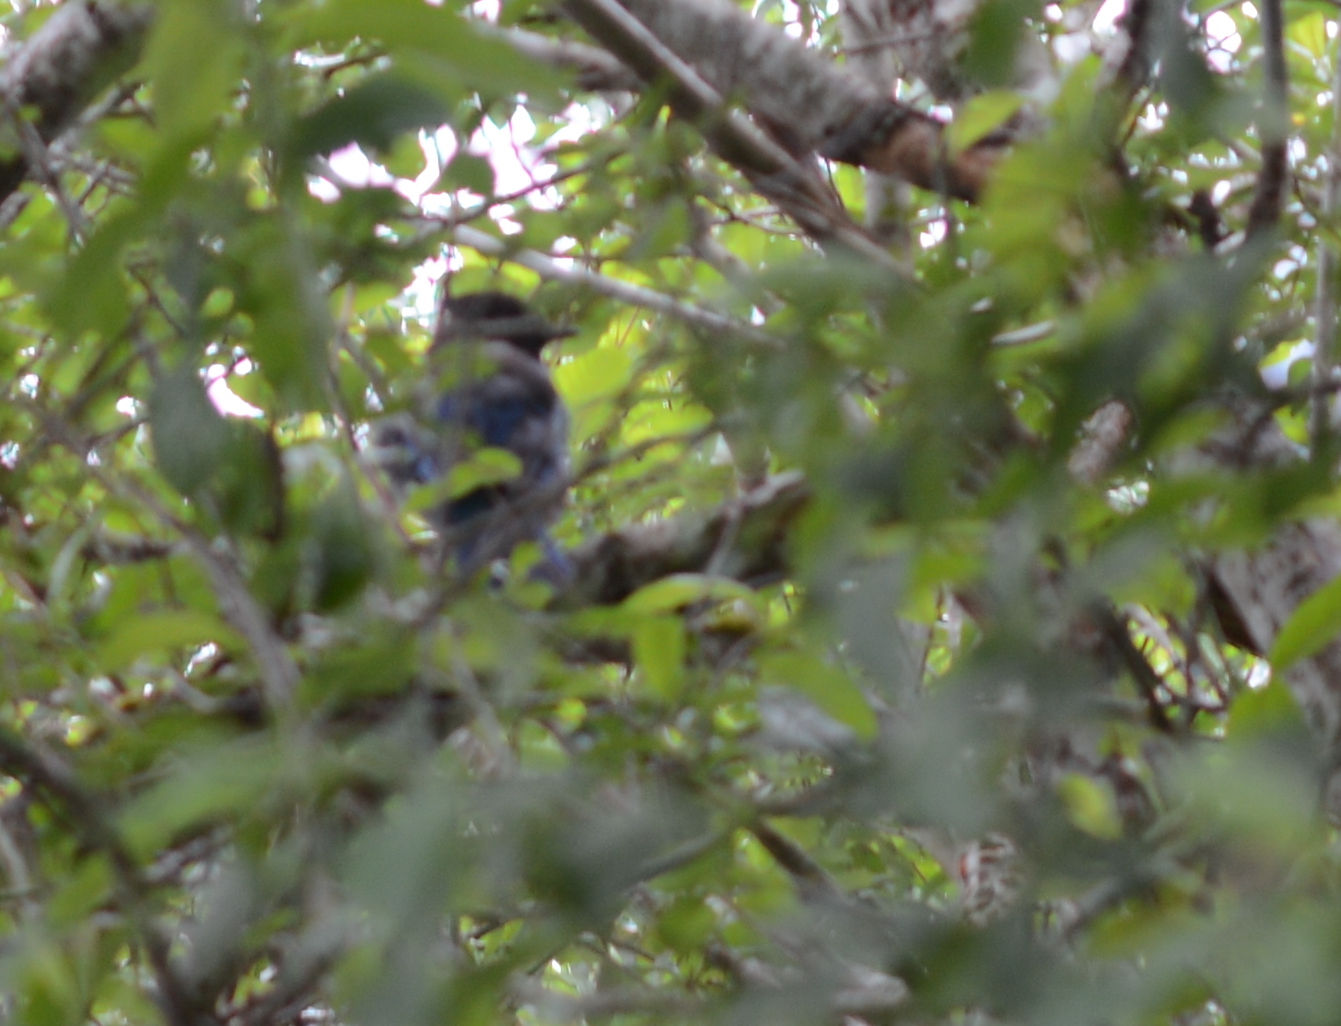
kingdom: Animalia
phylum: Chordata
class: Aves
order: Passeriformes
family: Corvidae
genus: Cyanocitta
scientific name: Cyanocitta stelleri
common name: Steller's jay
